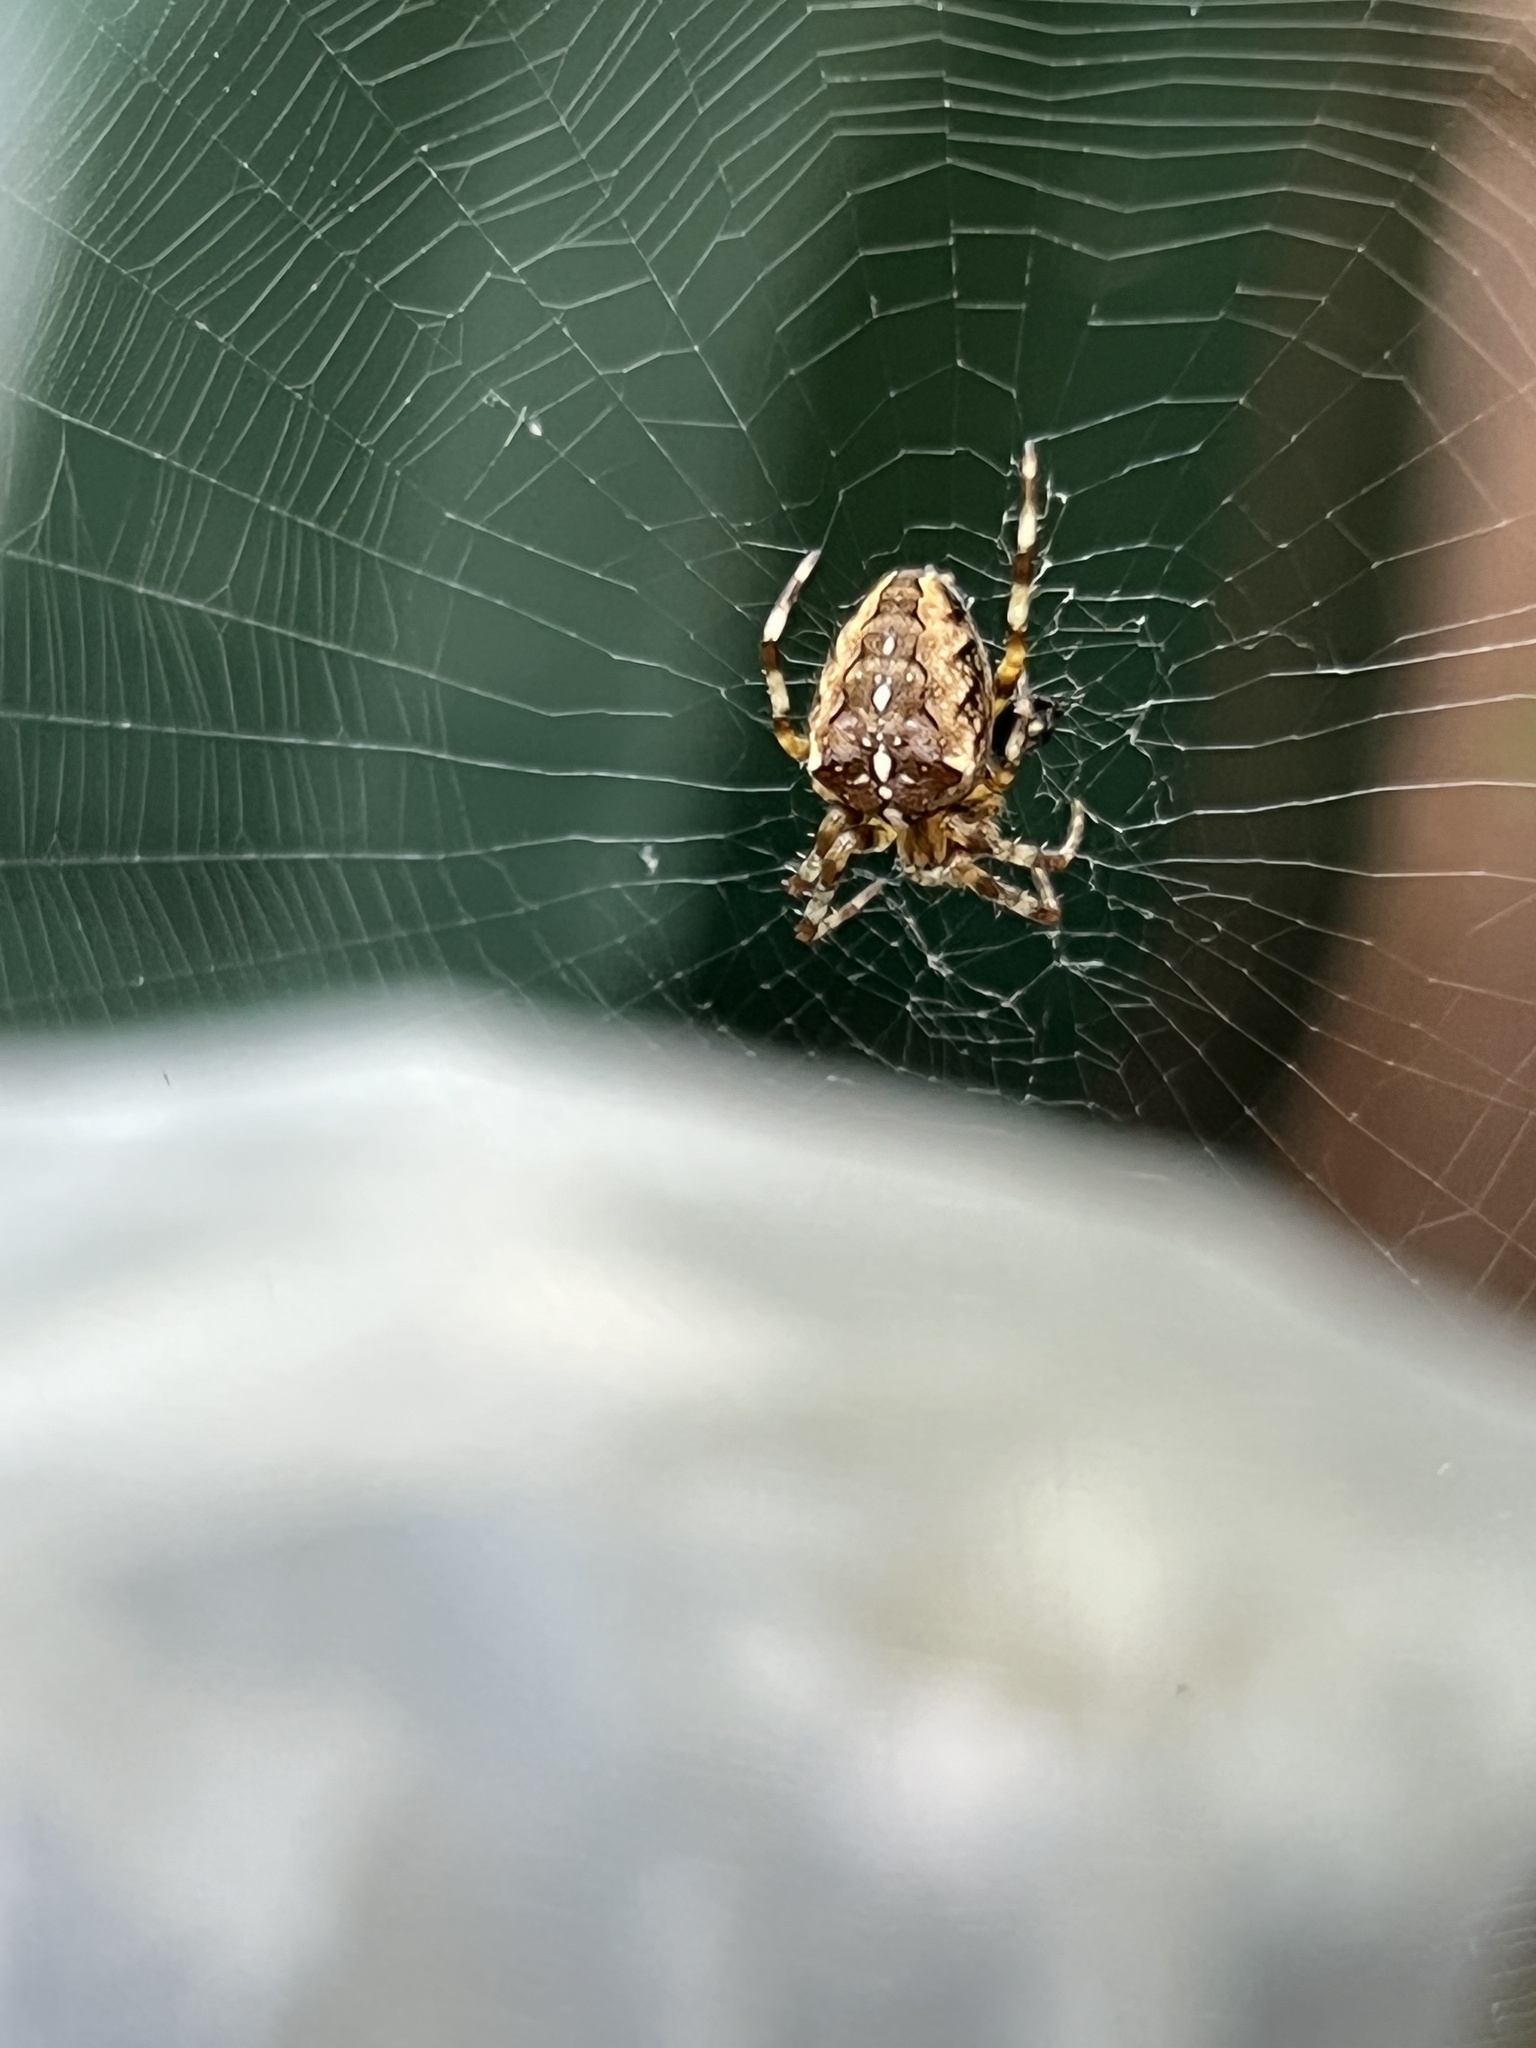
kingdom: Animalia
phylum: Arthropoda
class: Arachnida
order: Araneae
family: Araneidae
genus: Araneus
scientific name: Araneus diadematus
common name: Cross orbweaver
